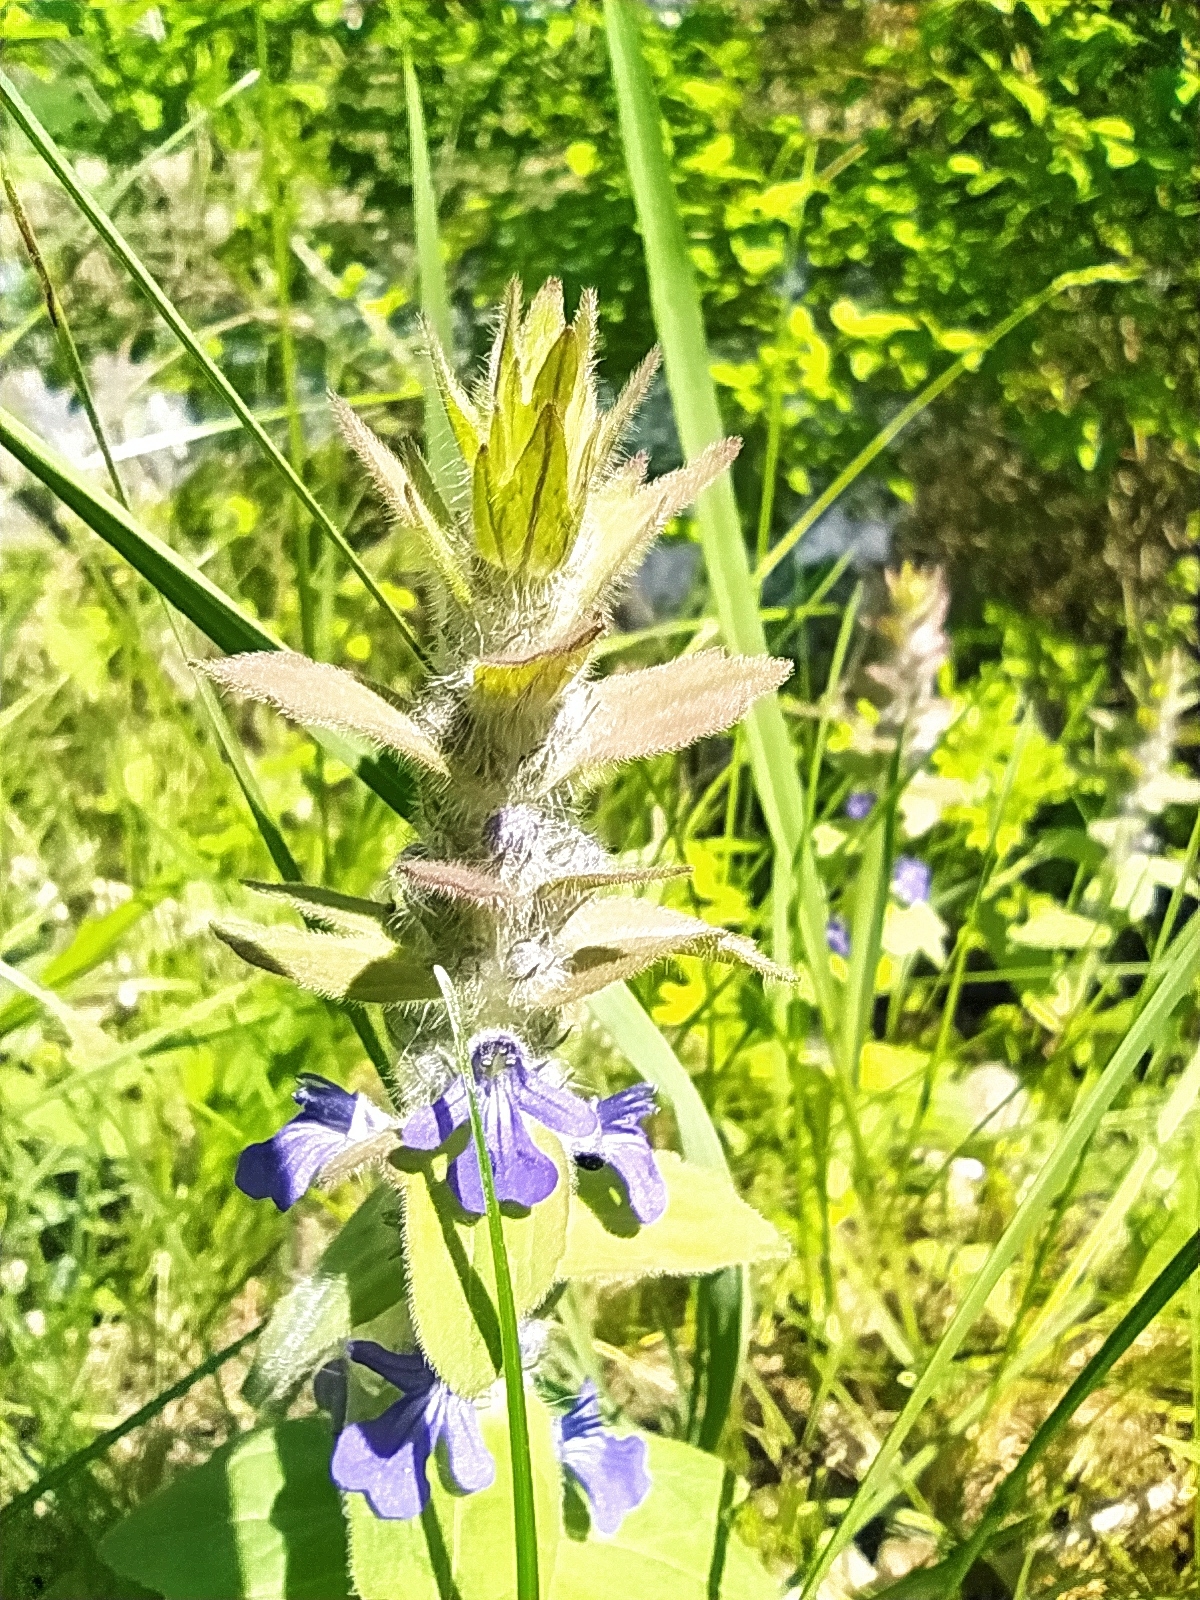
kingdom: Plantae
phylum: Tracheophyta
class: Magnoliopsida
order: Lamiales
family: Lamiaceae
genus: Ajuga
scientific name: Ajuga genevensis
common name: Blue bugle
